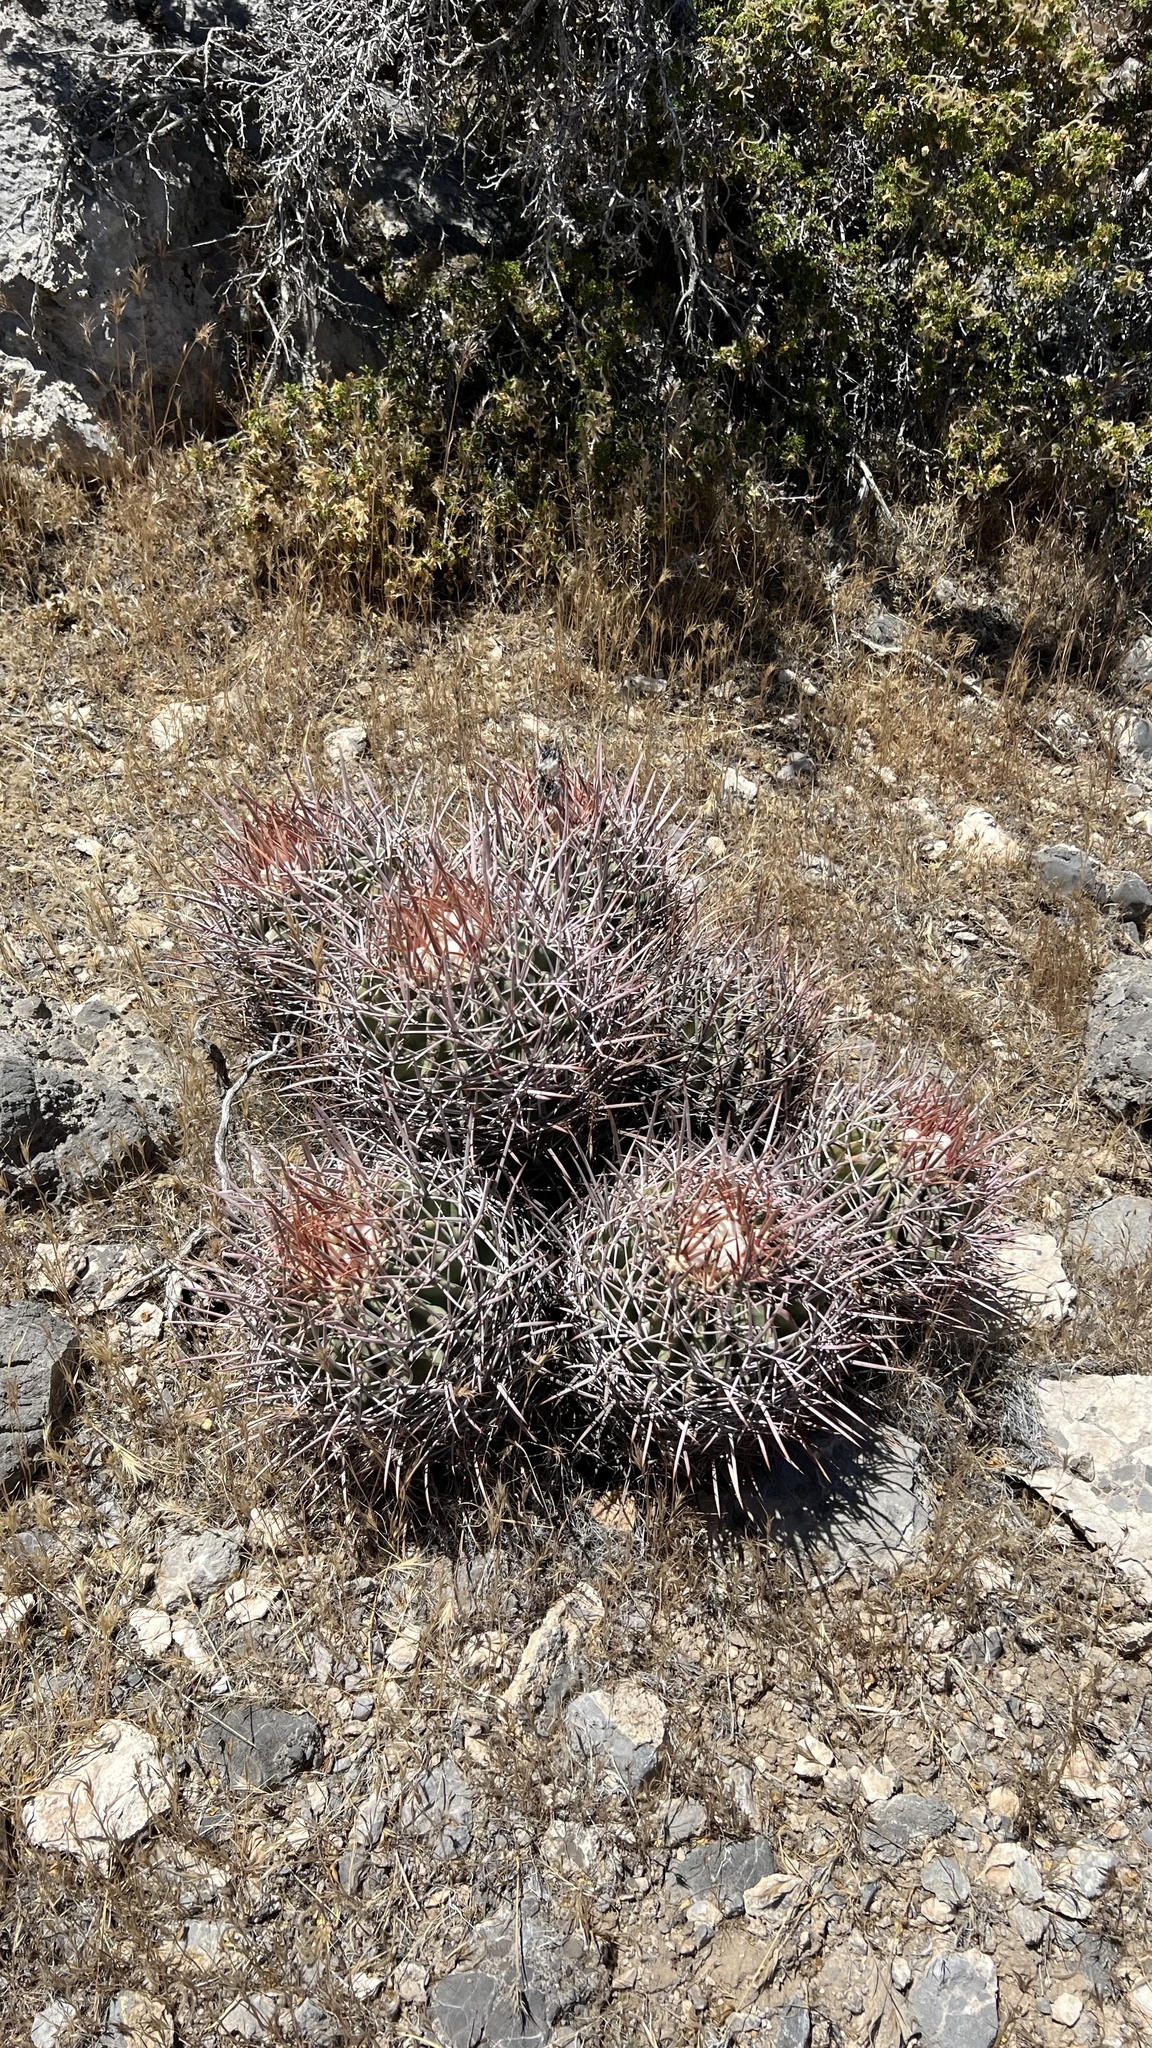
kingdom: Plantae
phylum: Tracheophyta
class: Magnoliopsida
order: Caryophyllales
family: Cactaceae
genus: Echinocactus
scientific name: Echinocactus polycephalus
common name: Cottontop cactus
